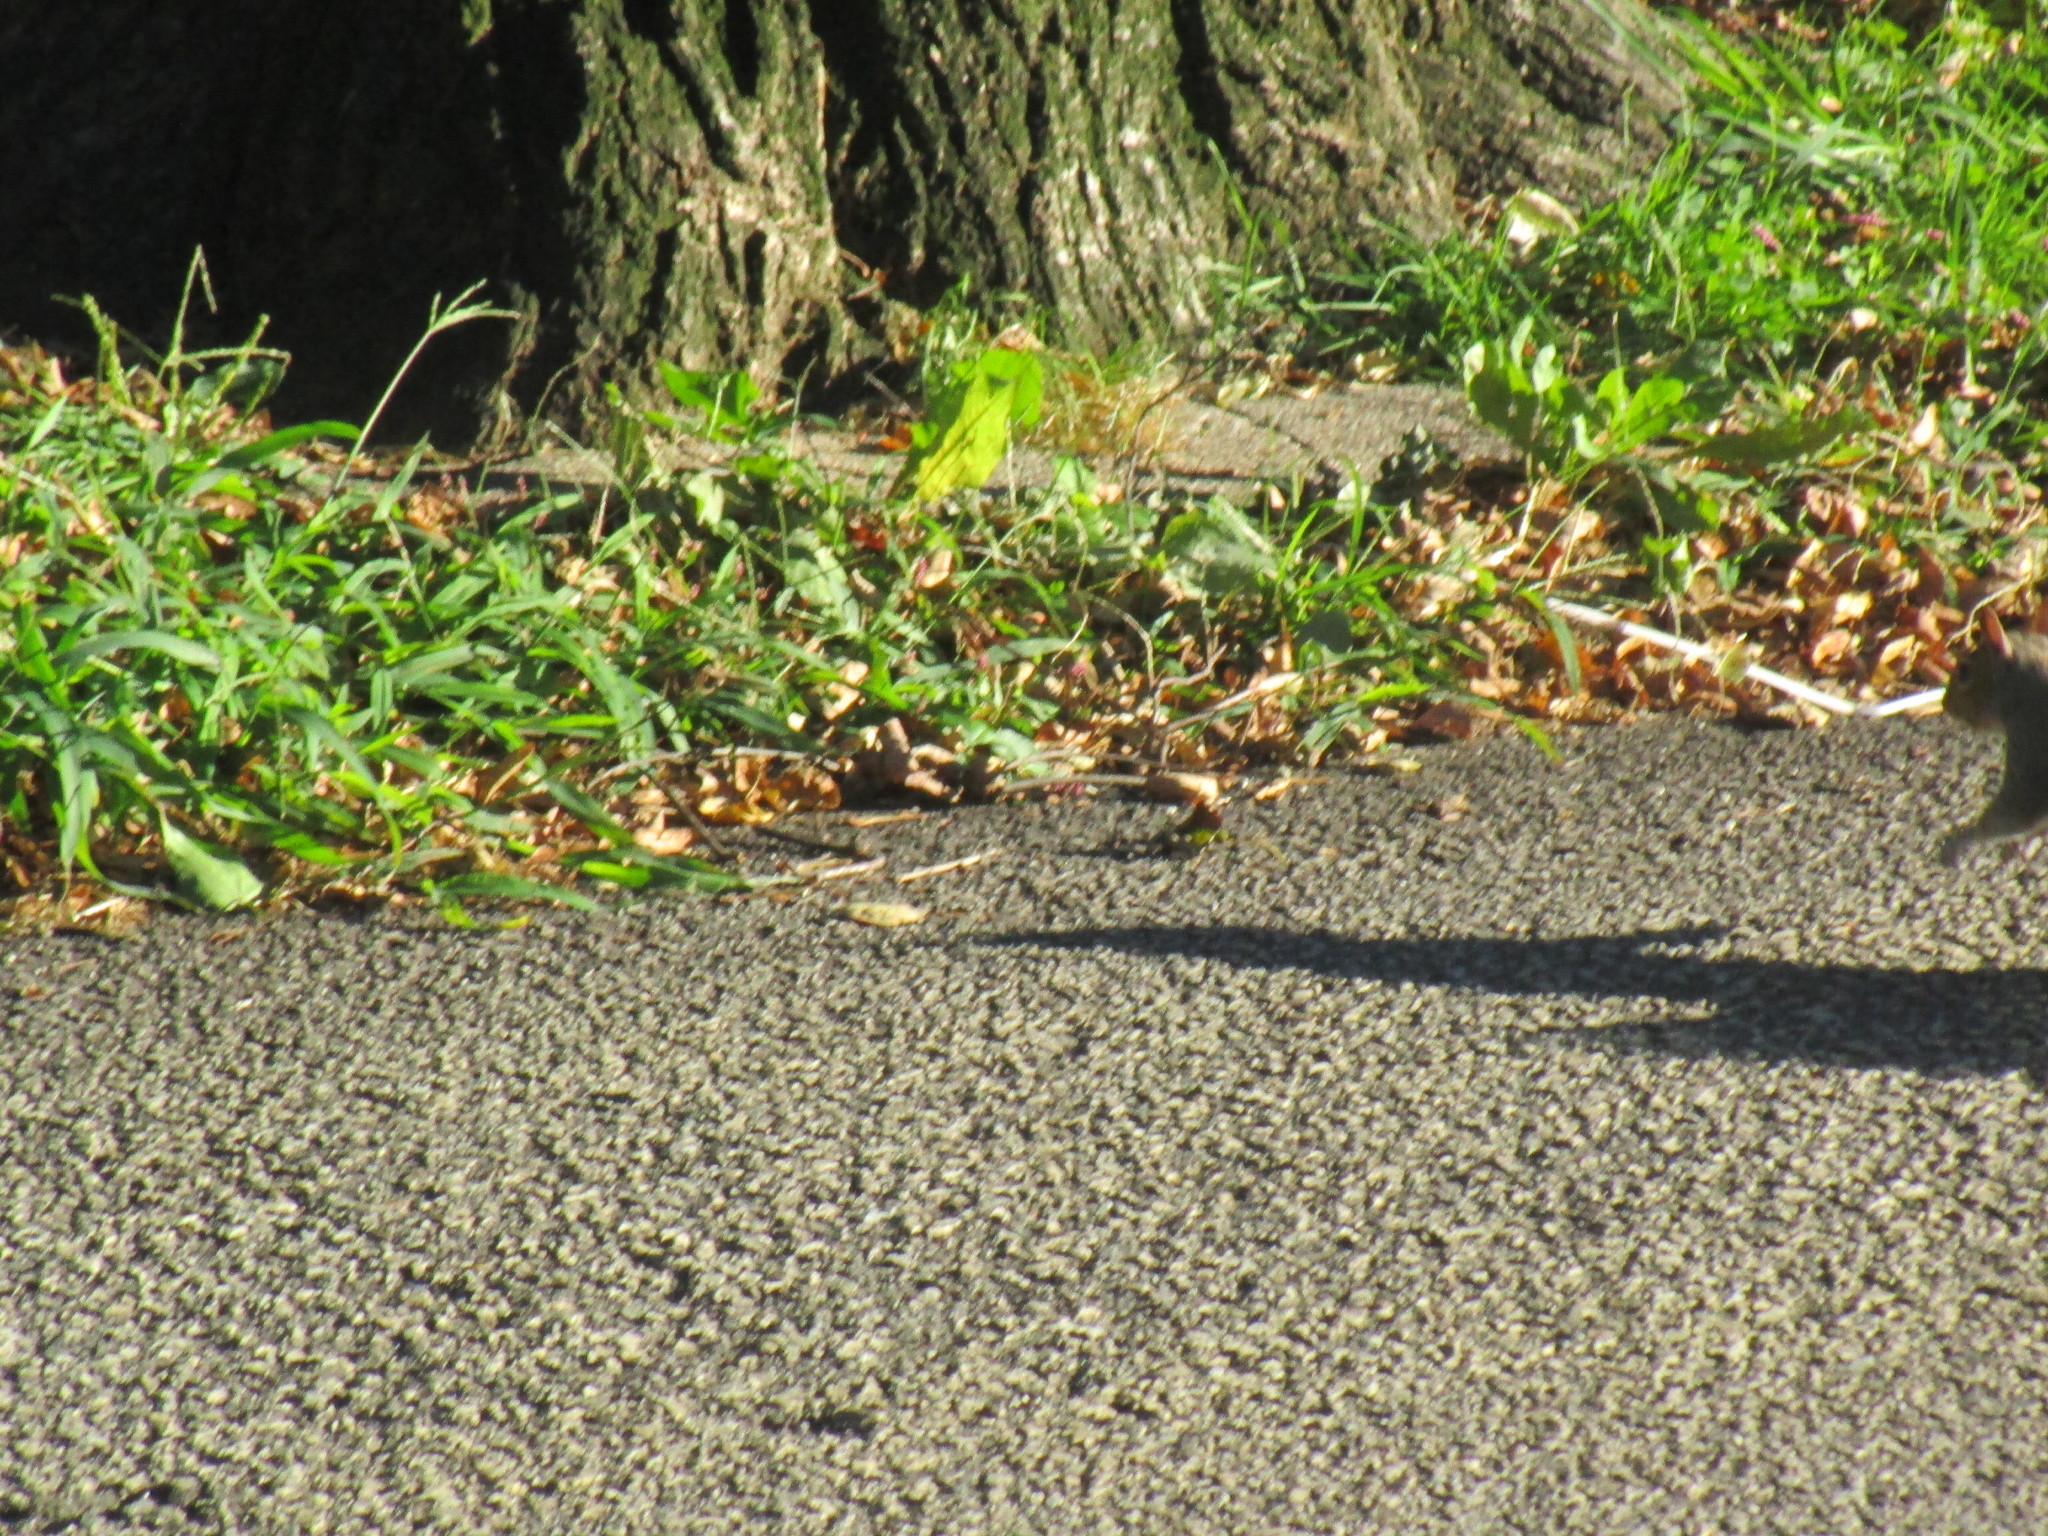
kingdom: Animalia
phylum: Chordata
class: Mammalia
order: Rodentia
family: Sciuridae
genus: Sciurus
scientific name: Sciurus carolinensis
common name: Eastern gray squirrel
